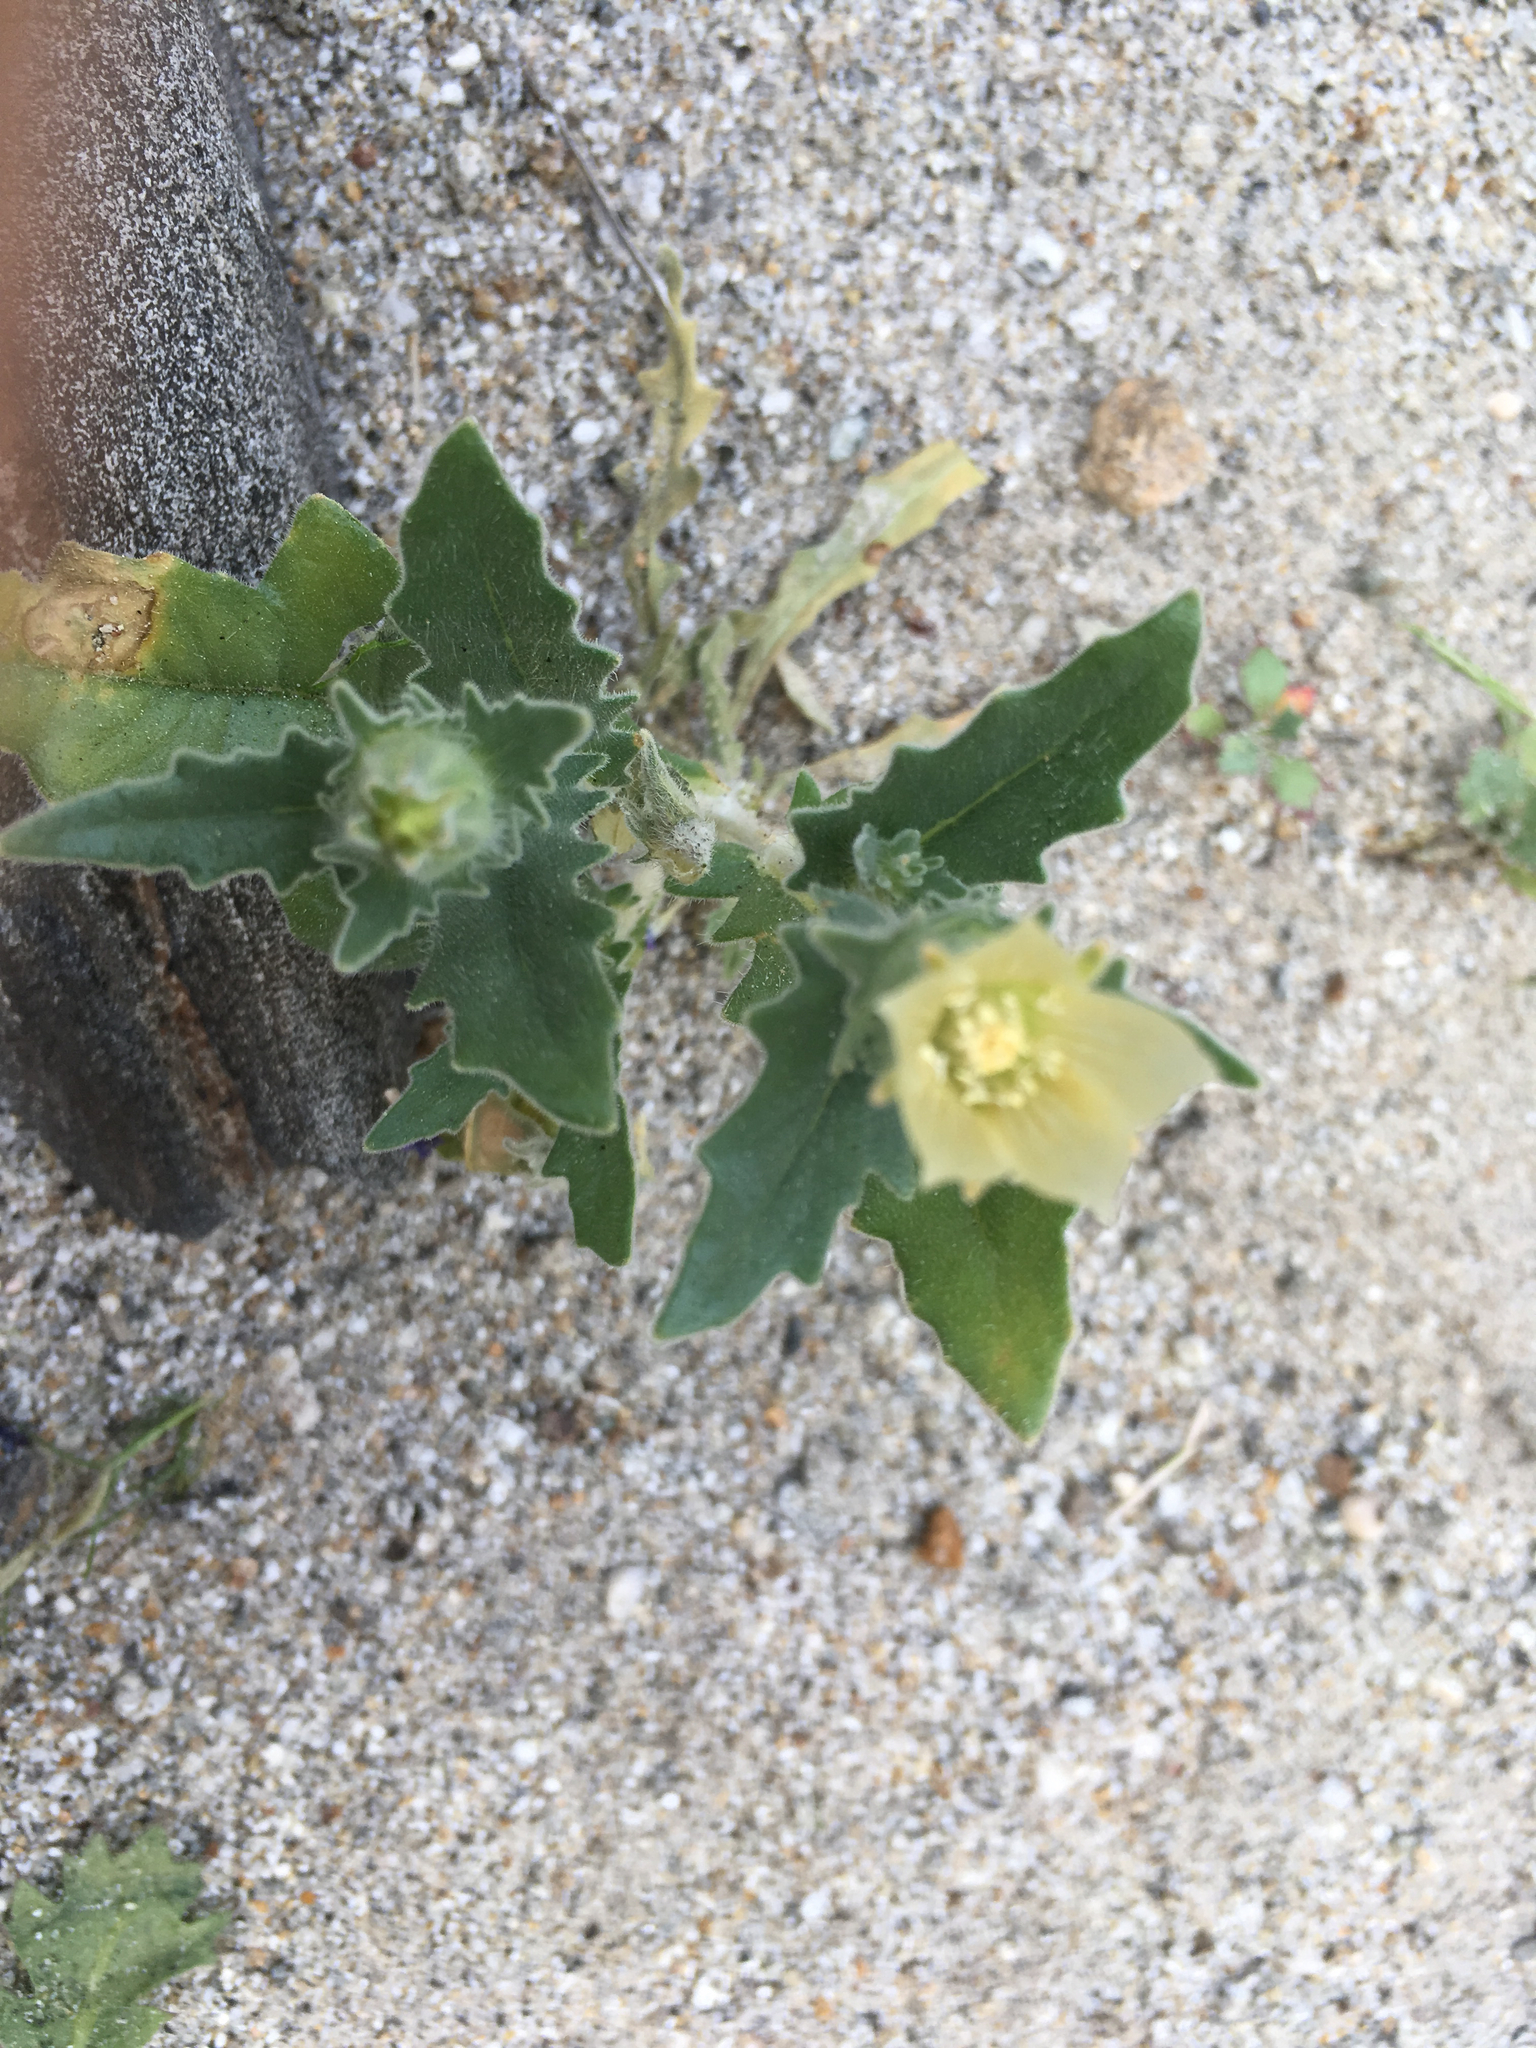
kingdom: Plantae
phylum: Tracheophyta
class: Magnoliopsida
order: Cornales
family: Loasaceae
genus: Mentzelia
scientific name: Mentzelia involucrata
